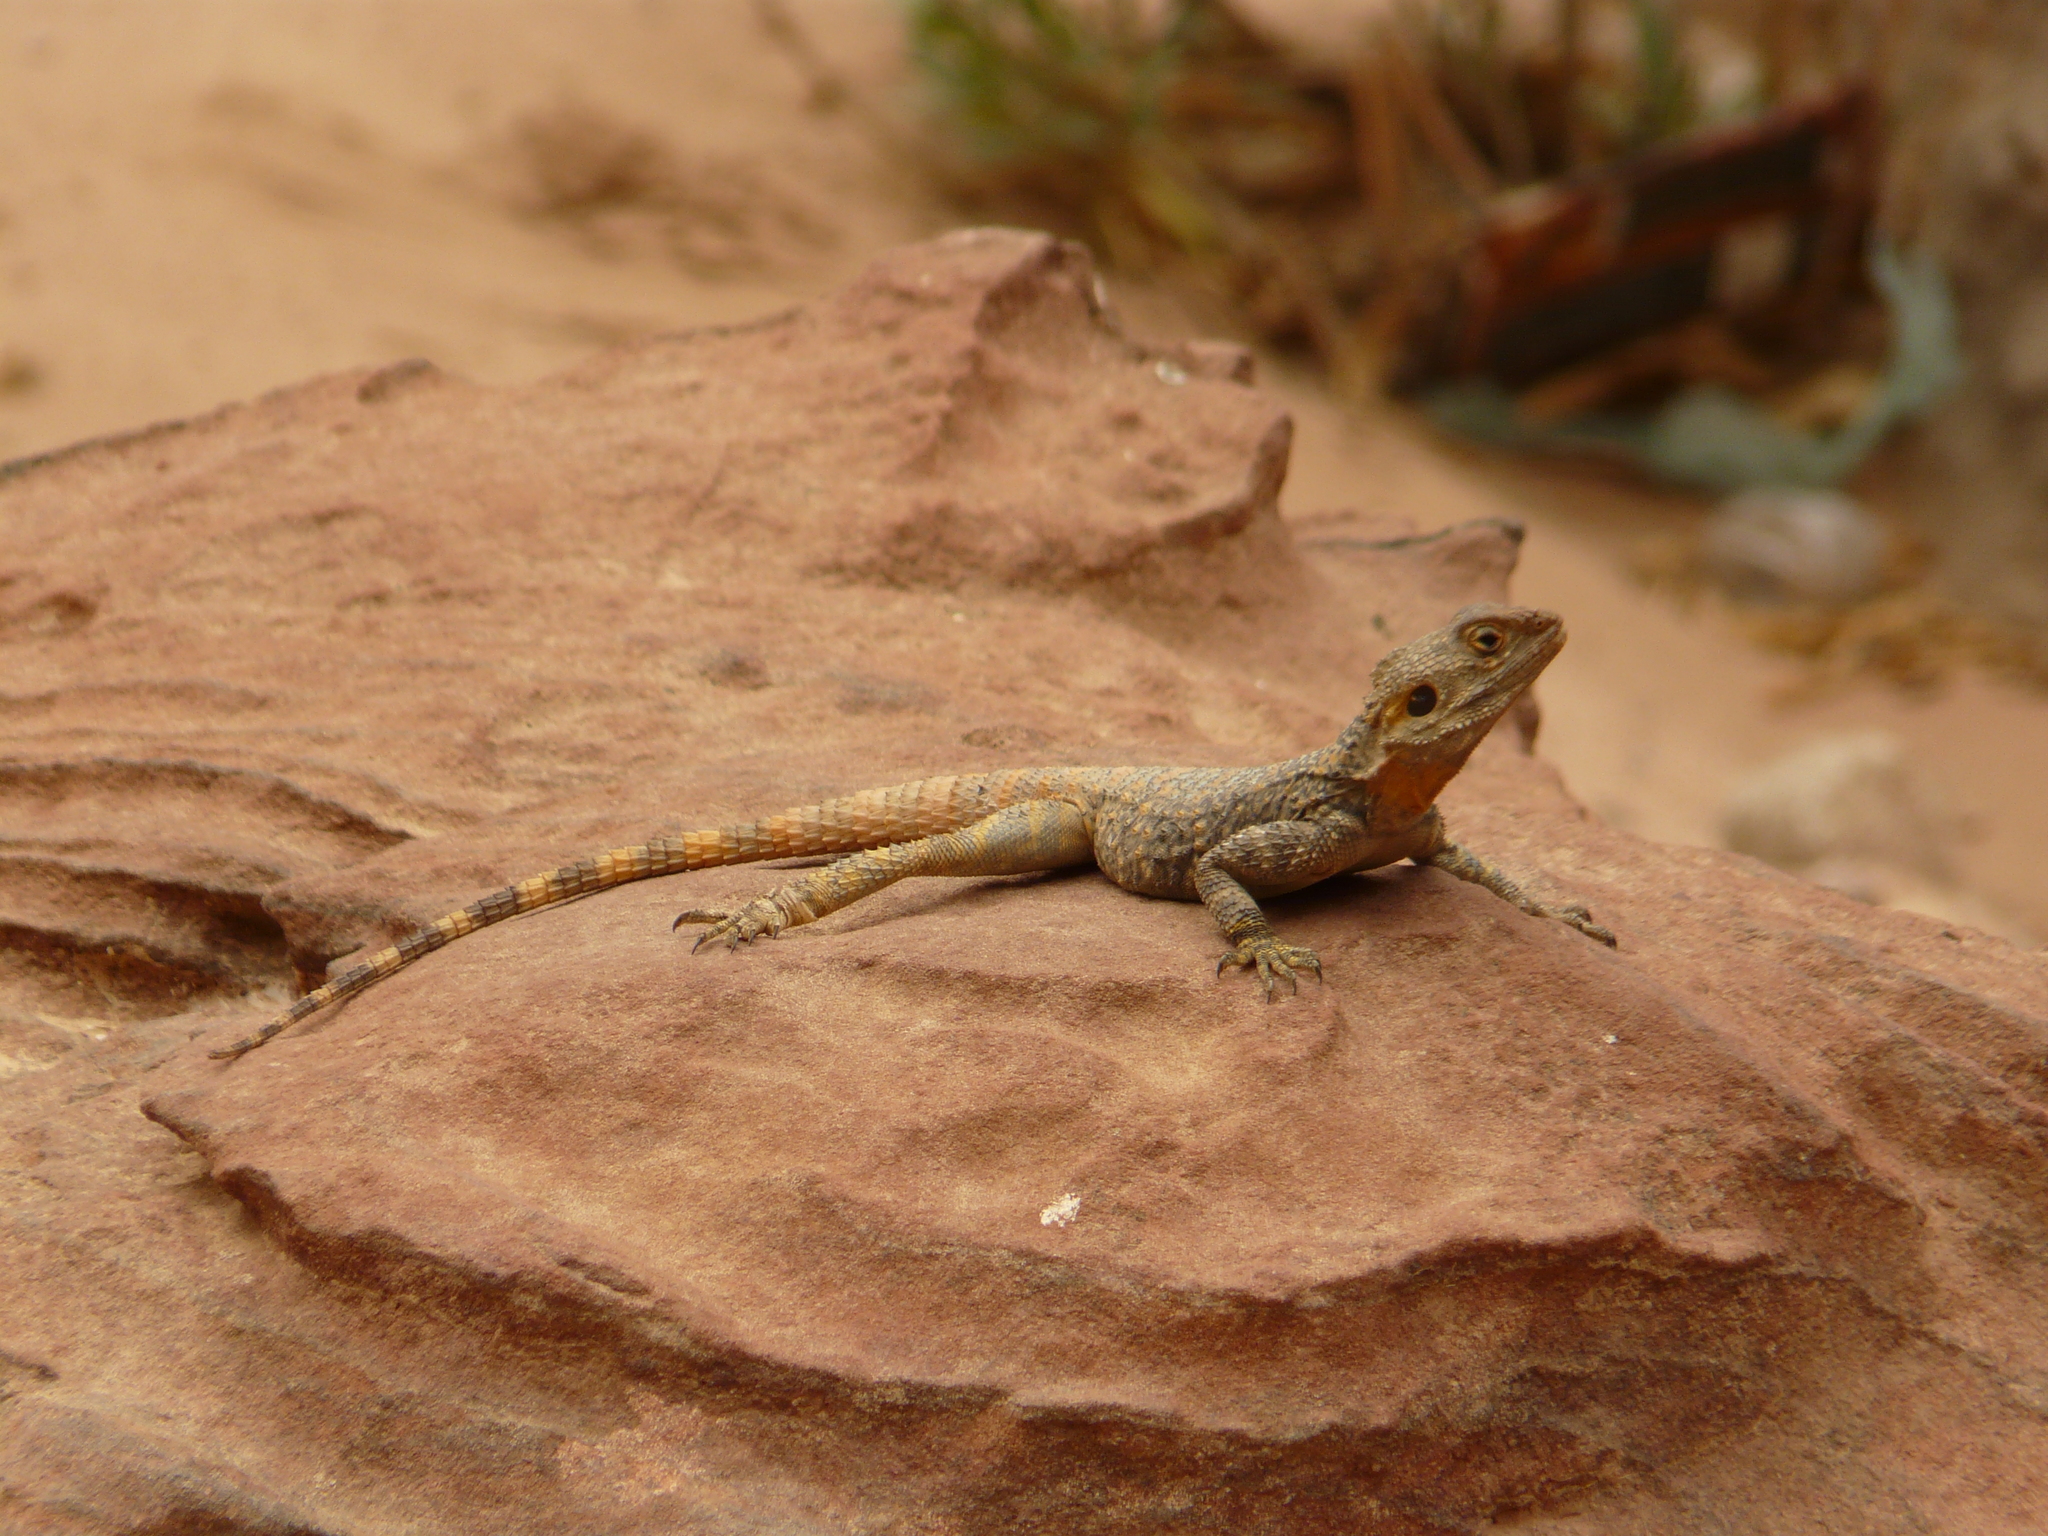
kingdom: Animalia
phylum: Chordata
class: Squamata
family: Agamidae
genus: Laudakia
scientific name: Laudakia vulgaris
